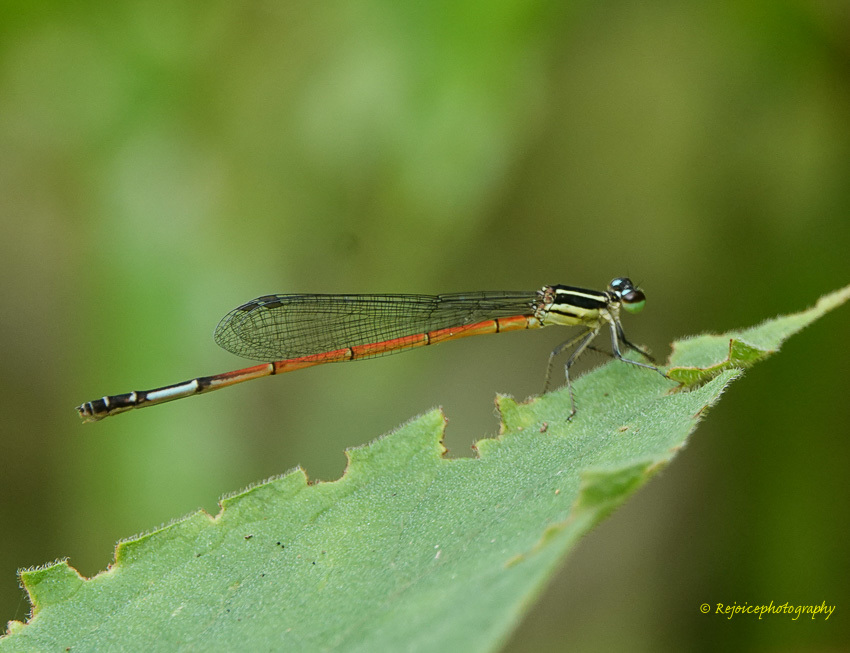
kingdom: Animalia
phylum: Arthropoda
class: Insecta
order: Odonata
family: Coenagrionidae
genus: Mortonagrion
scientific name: Mortonagrion aborense
